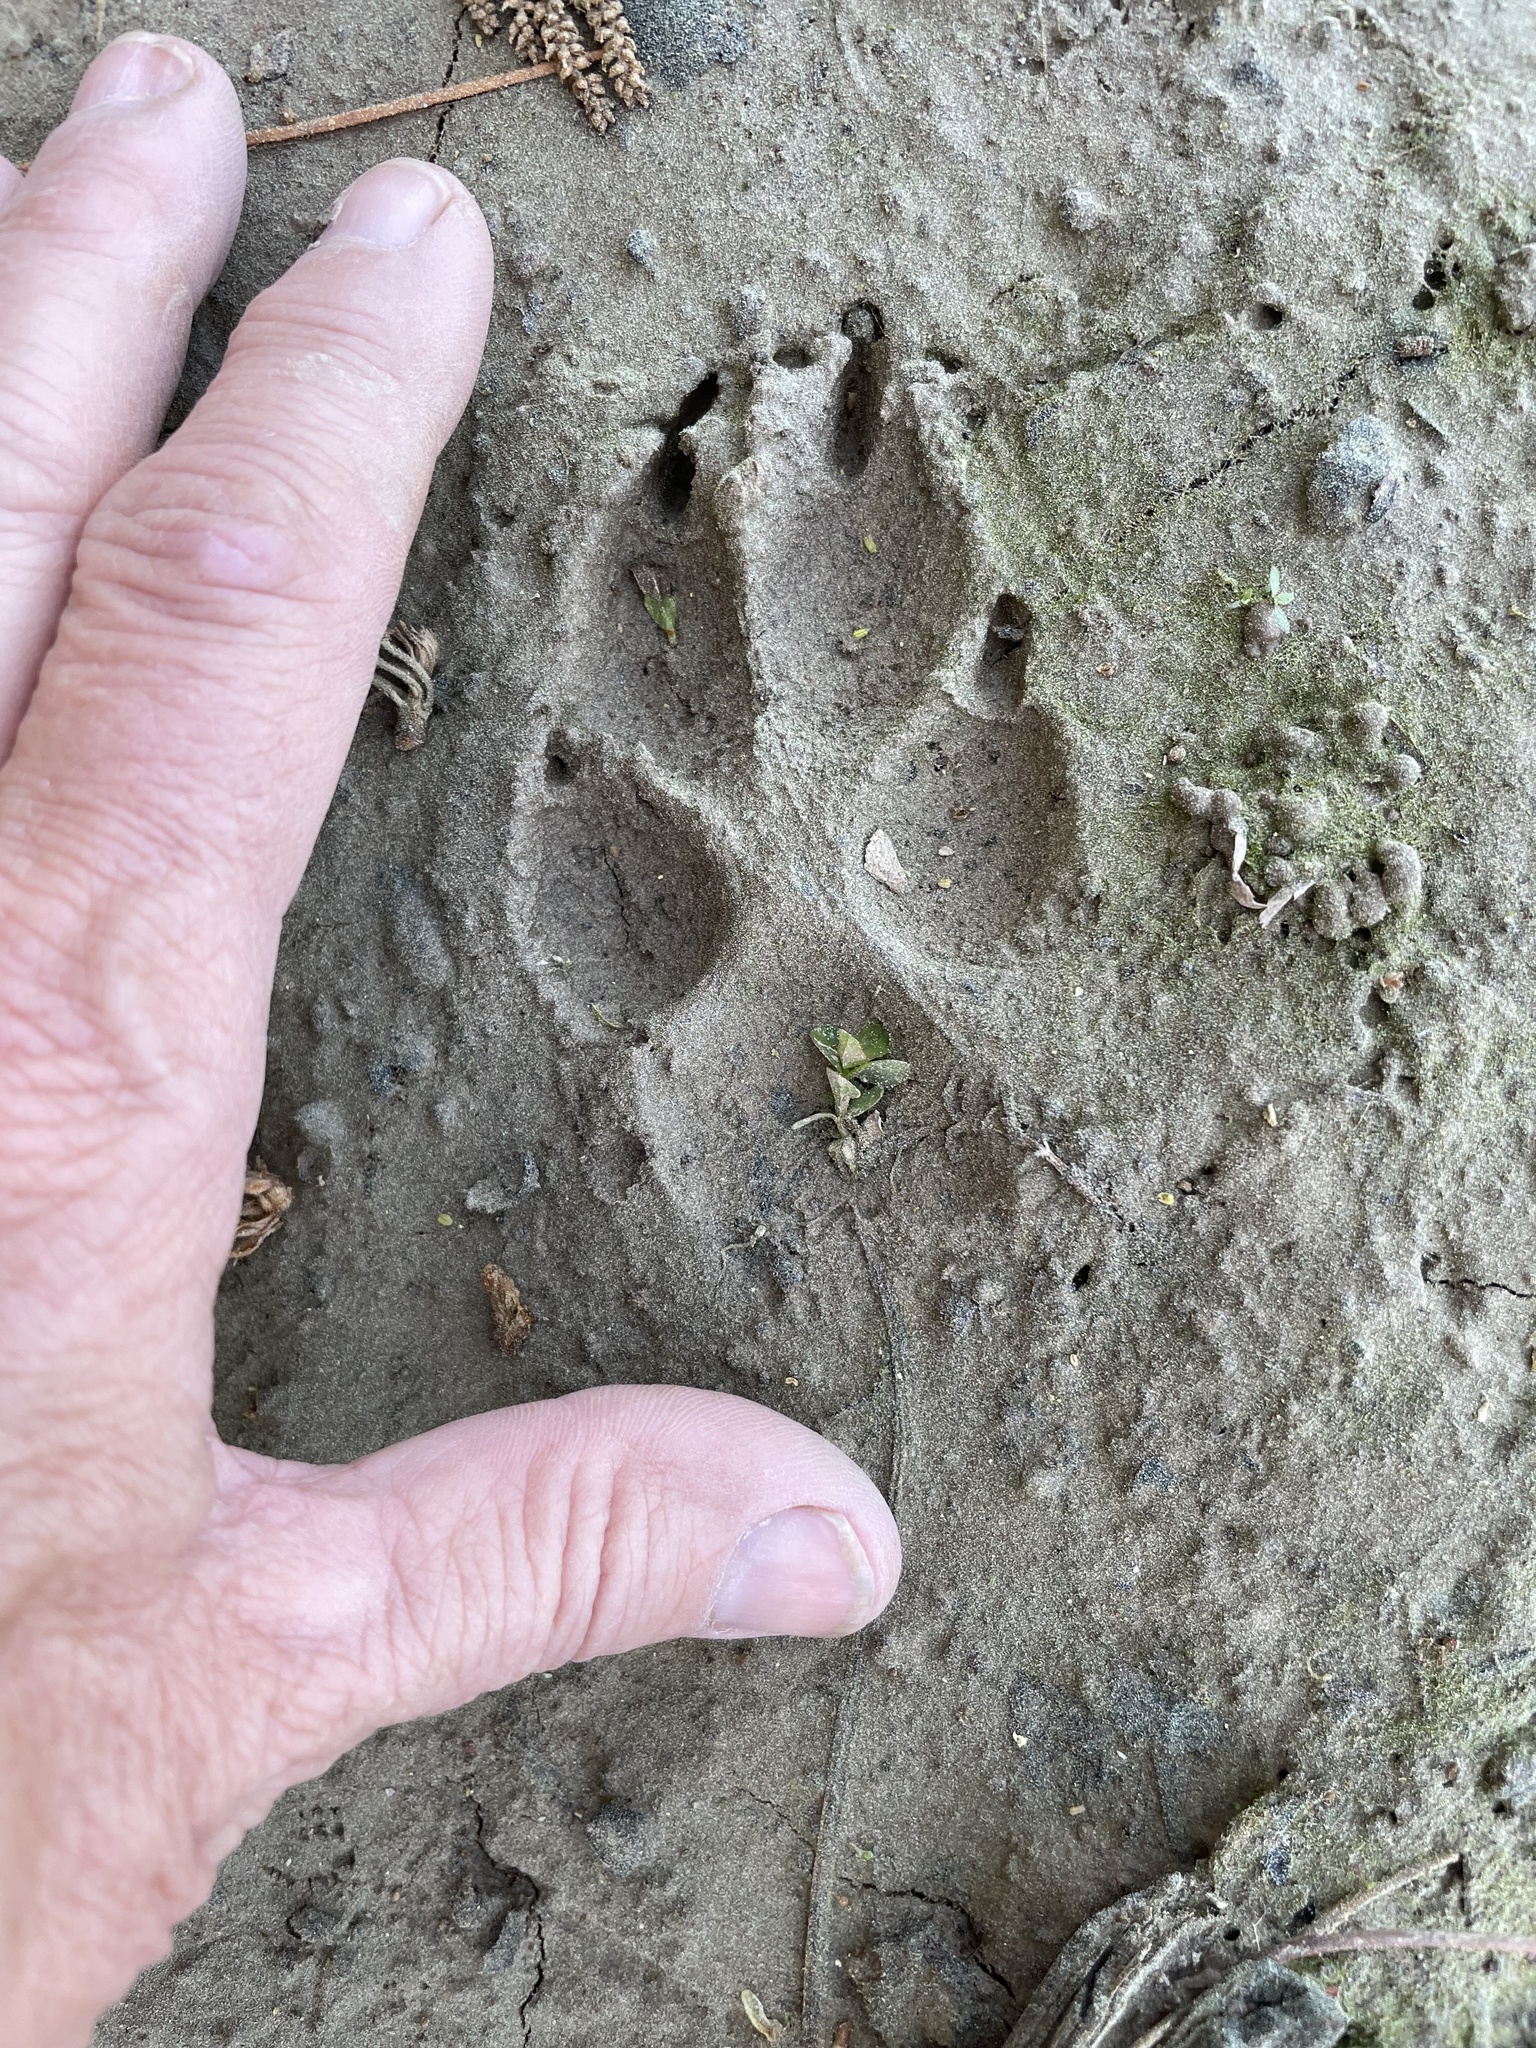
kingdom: Animalia
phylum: Chordata
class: Mammalia
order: Carnivora
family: Canidae
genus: Canis
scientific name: Canis latrans
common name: Coyote
